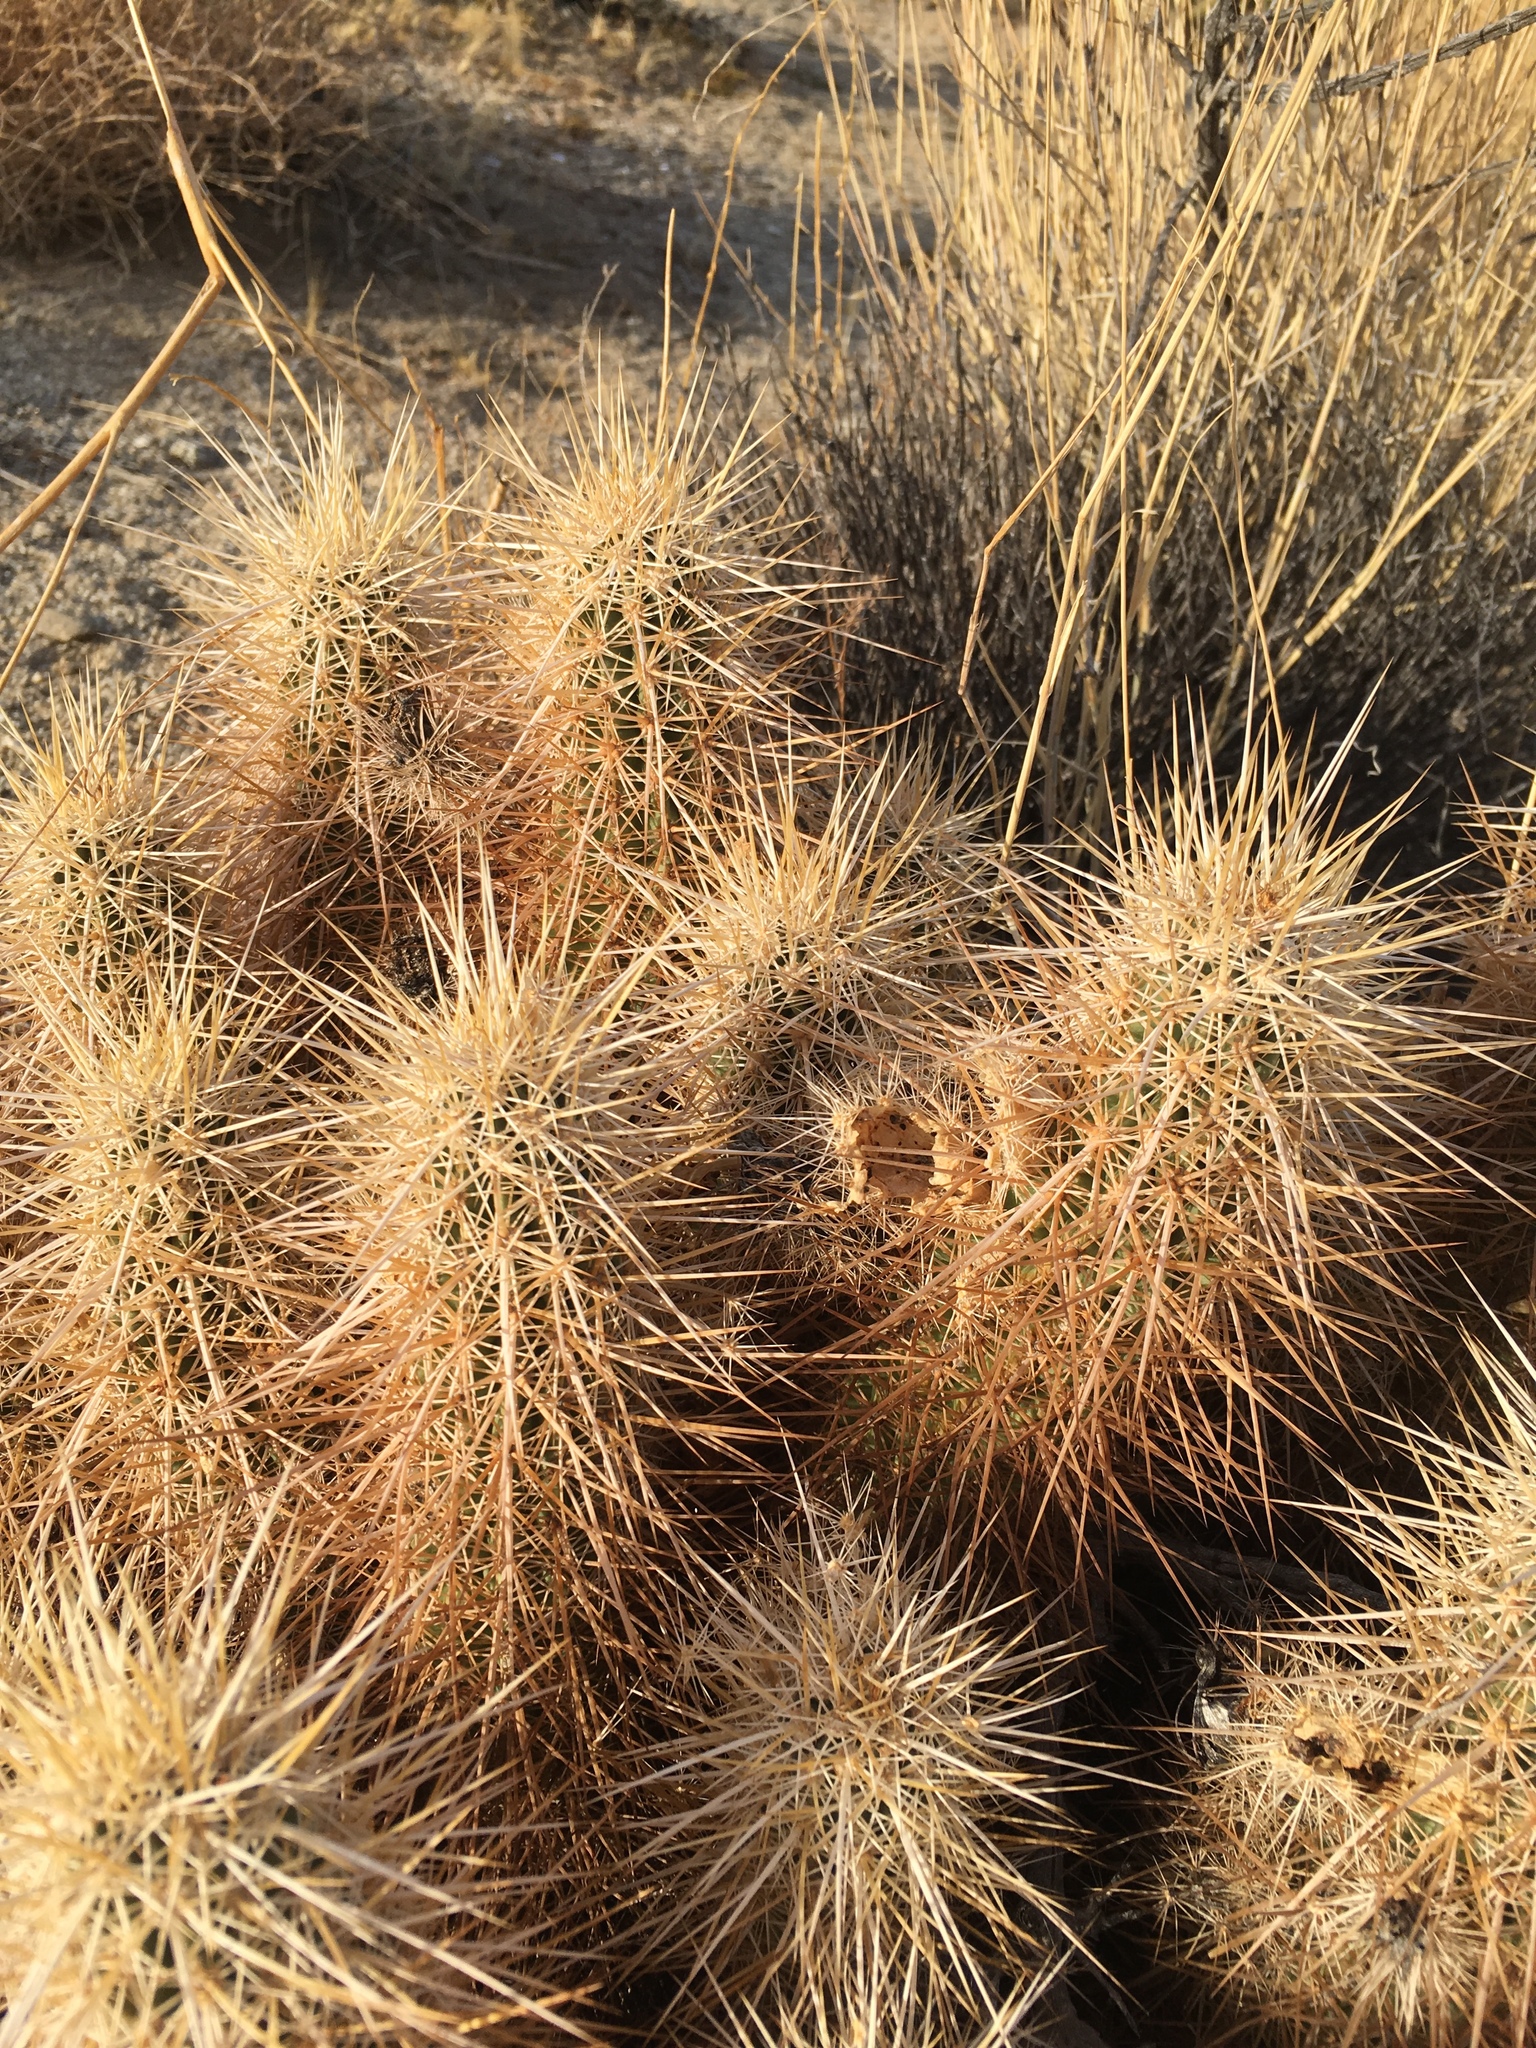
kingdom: Plantae
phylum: Tracheophyta
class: Magnoliopsida
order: Caryophyllales
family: Cactaceae
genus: Echinocereus
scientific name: Echinocereus engelmannii
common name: Engelmann's hedgehog cactus
